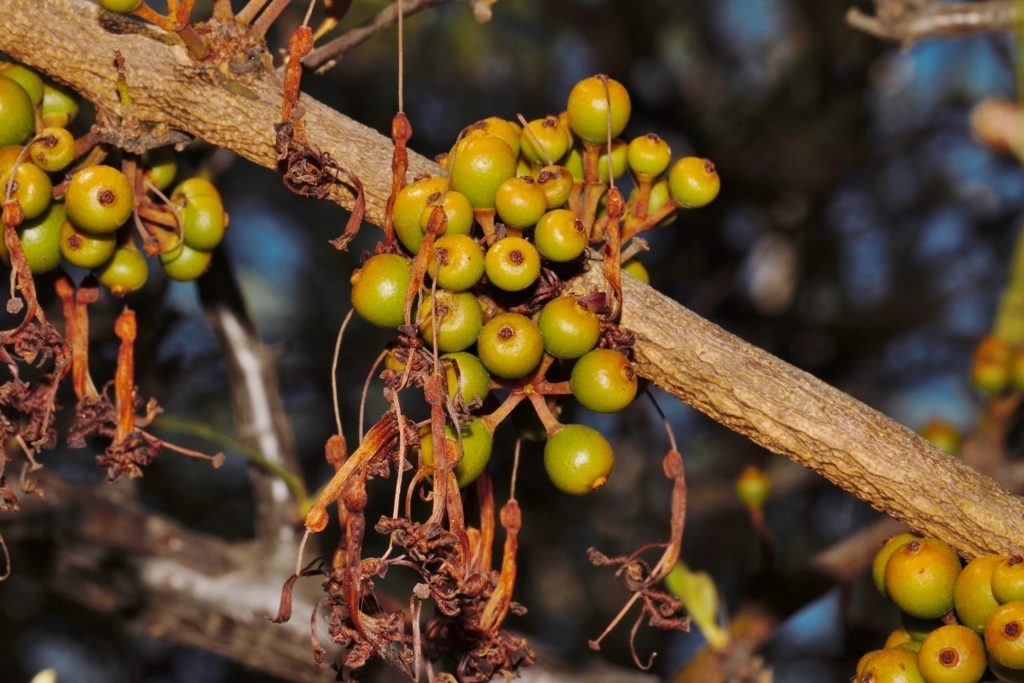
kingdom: Plantae
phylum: Tracheophyta
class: Magnoliopsida
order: Santalales
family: Loranthaceae
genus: Globimetula
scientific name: Globimetula mweroensis
